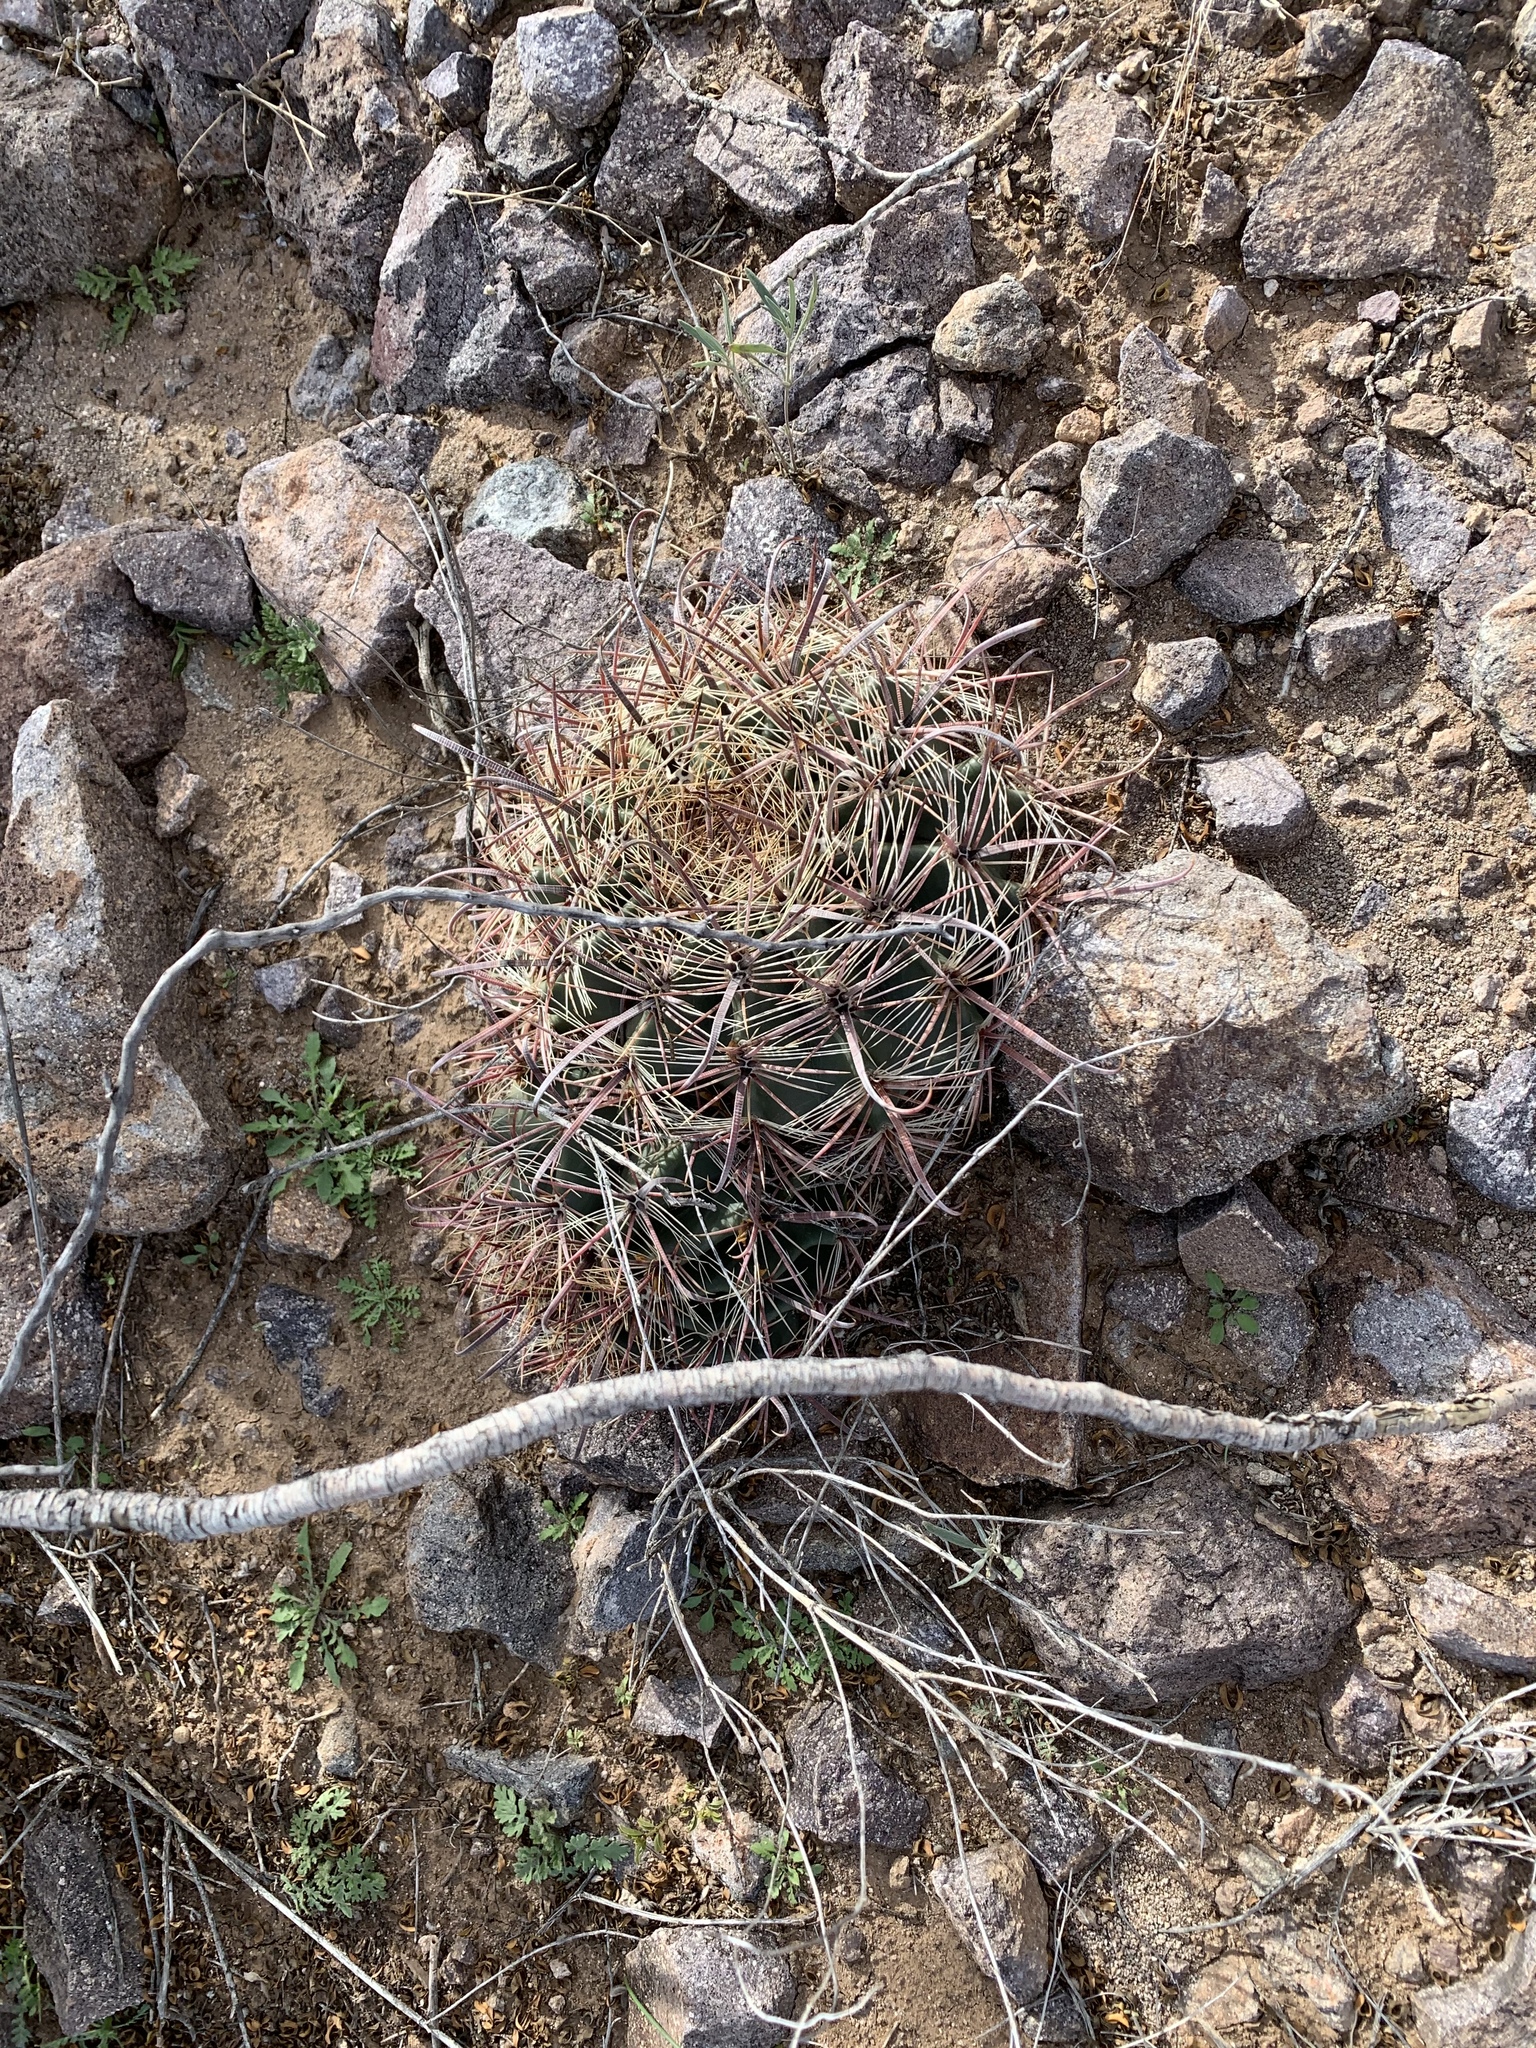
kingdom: Plantae
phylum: Tracheophyta
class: Magnoliopsida
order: Caryophyllales
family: Cactaceae
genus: Ferocactus
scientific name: Ferocactus wislizeni
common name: Candy barrel cactus
